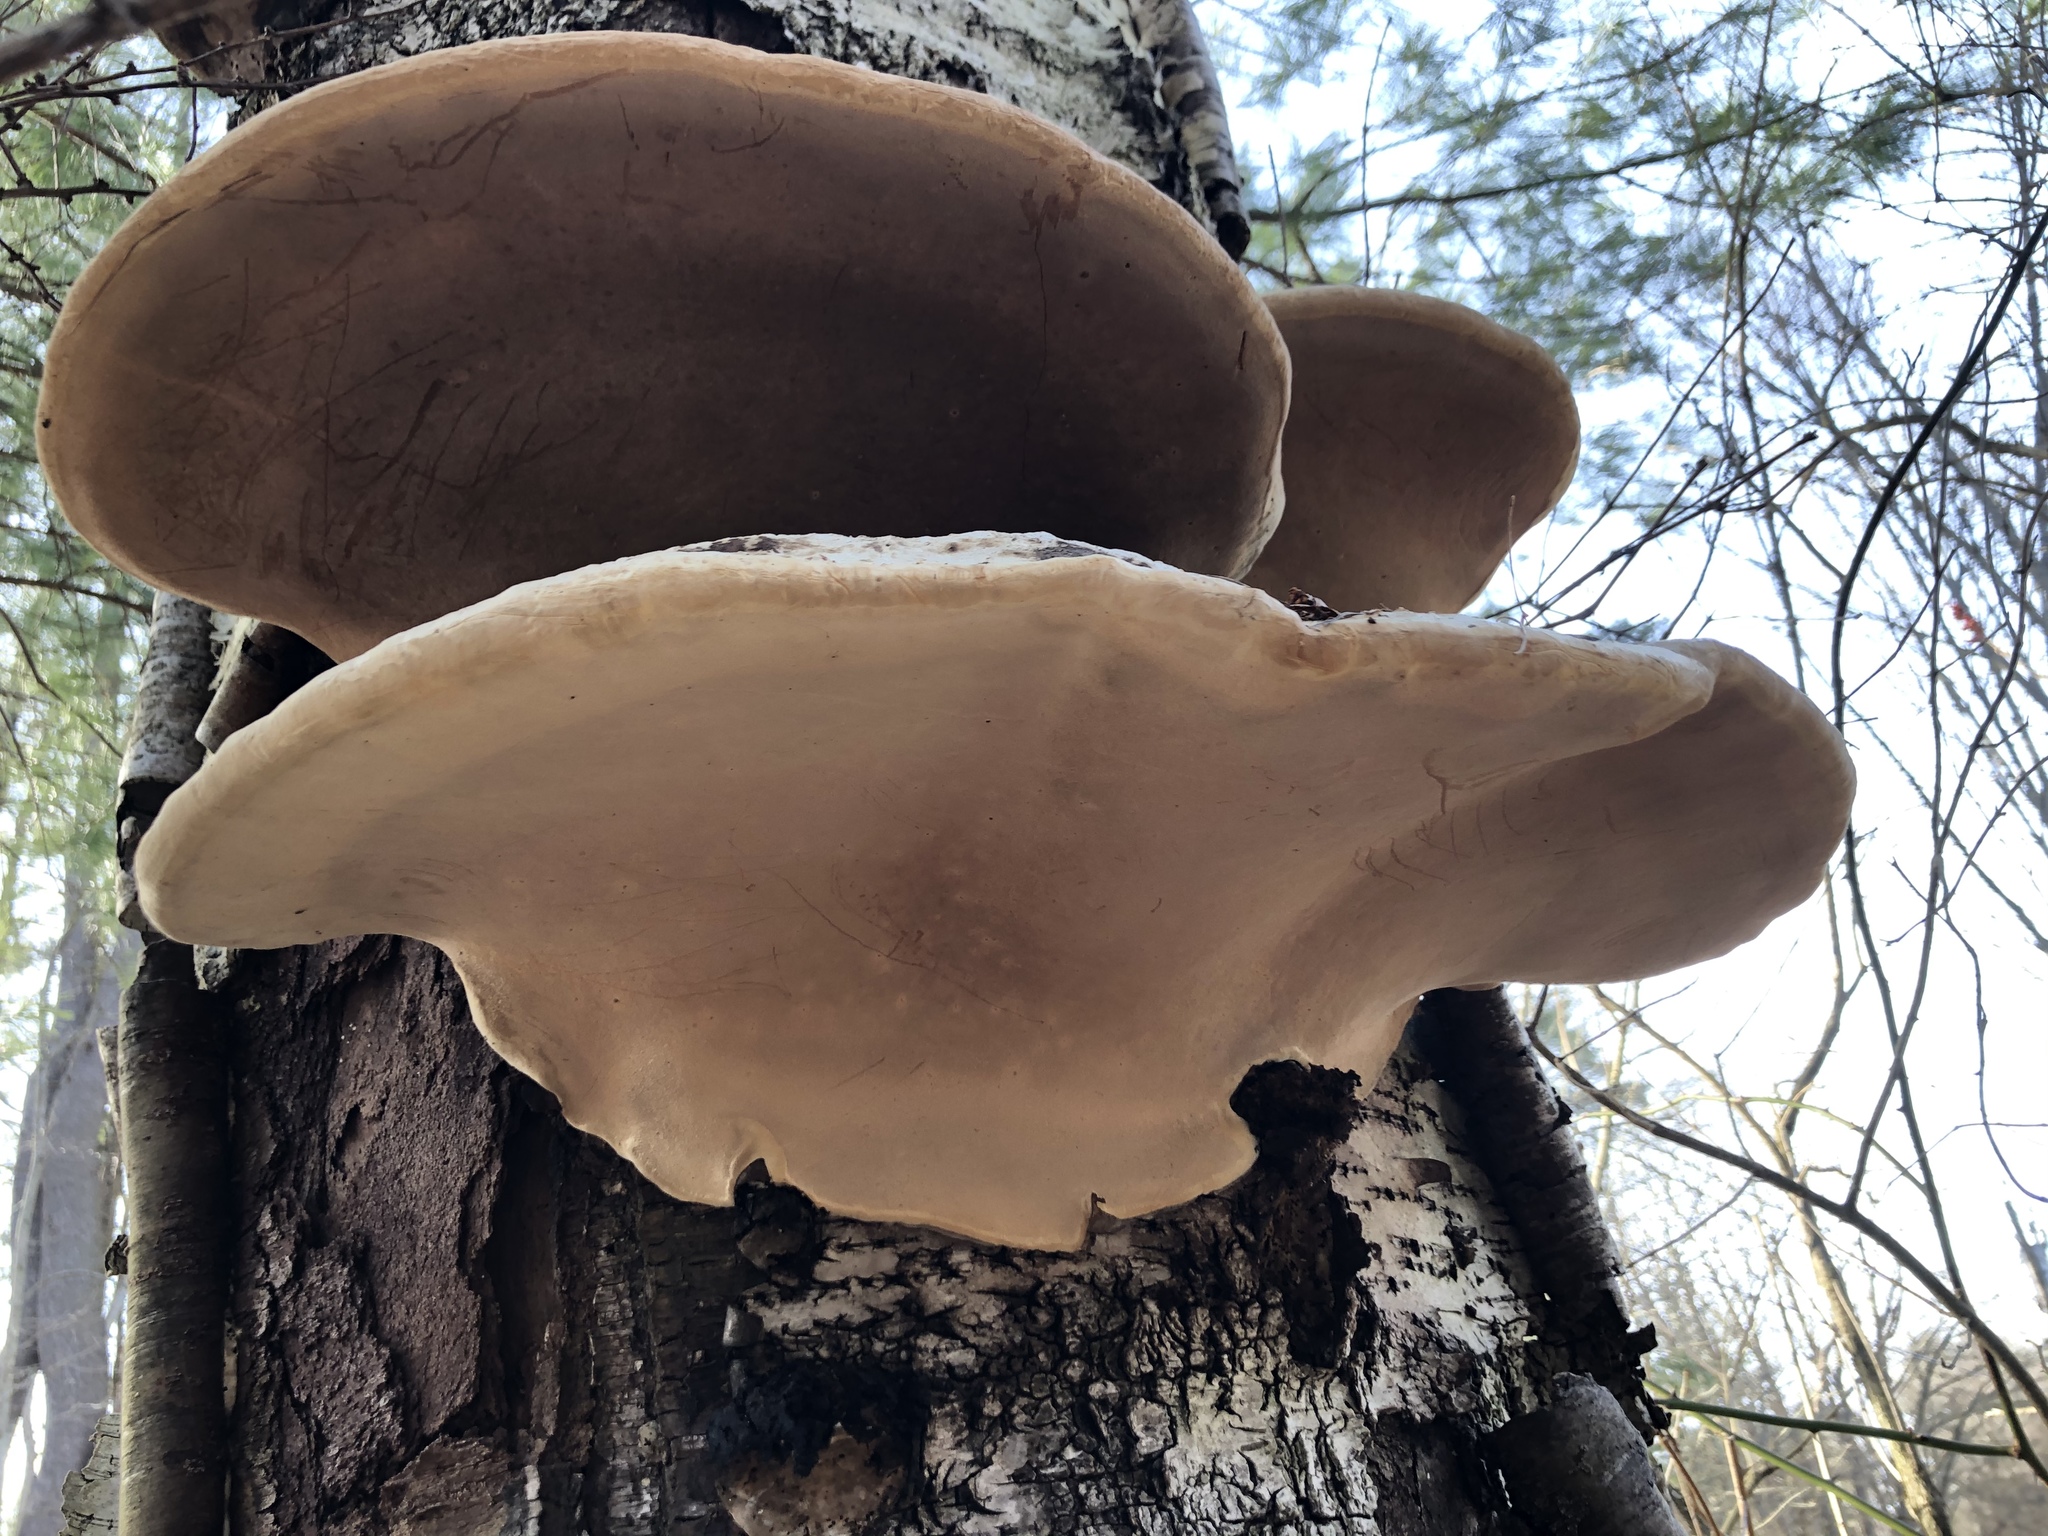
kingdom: Fungi
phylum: Basidiomycota
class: Agaricomycetes
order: Polyporales
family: Polyporaceae
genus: Ganoderma
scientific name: Ganoderma applanatum
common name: Artist's bracket
